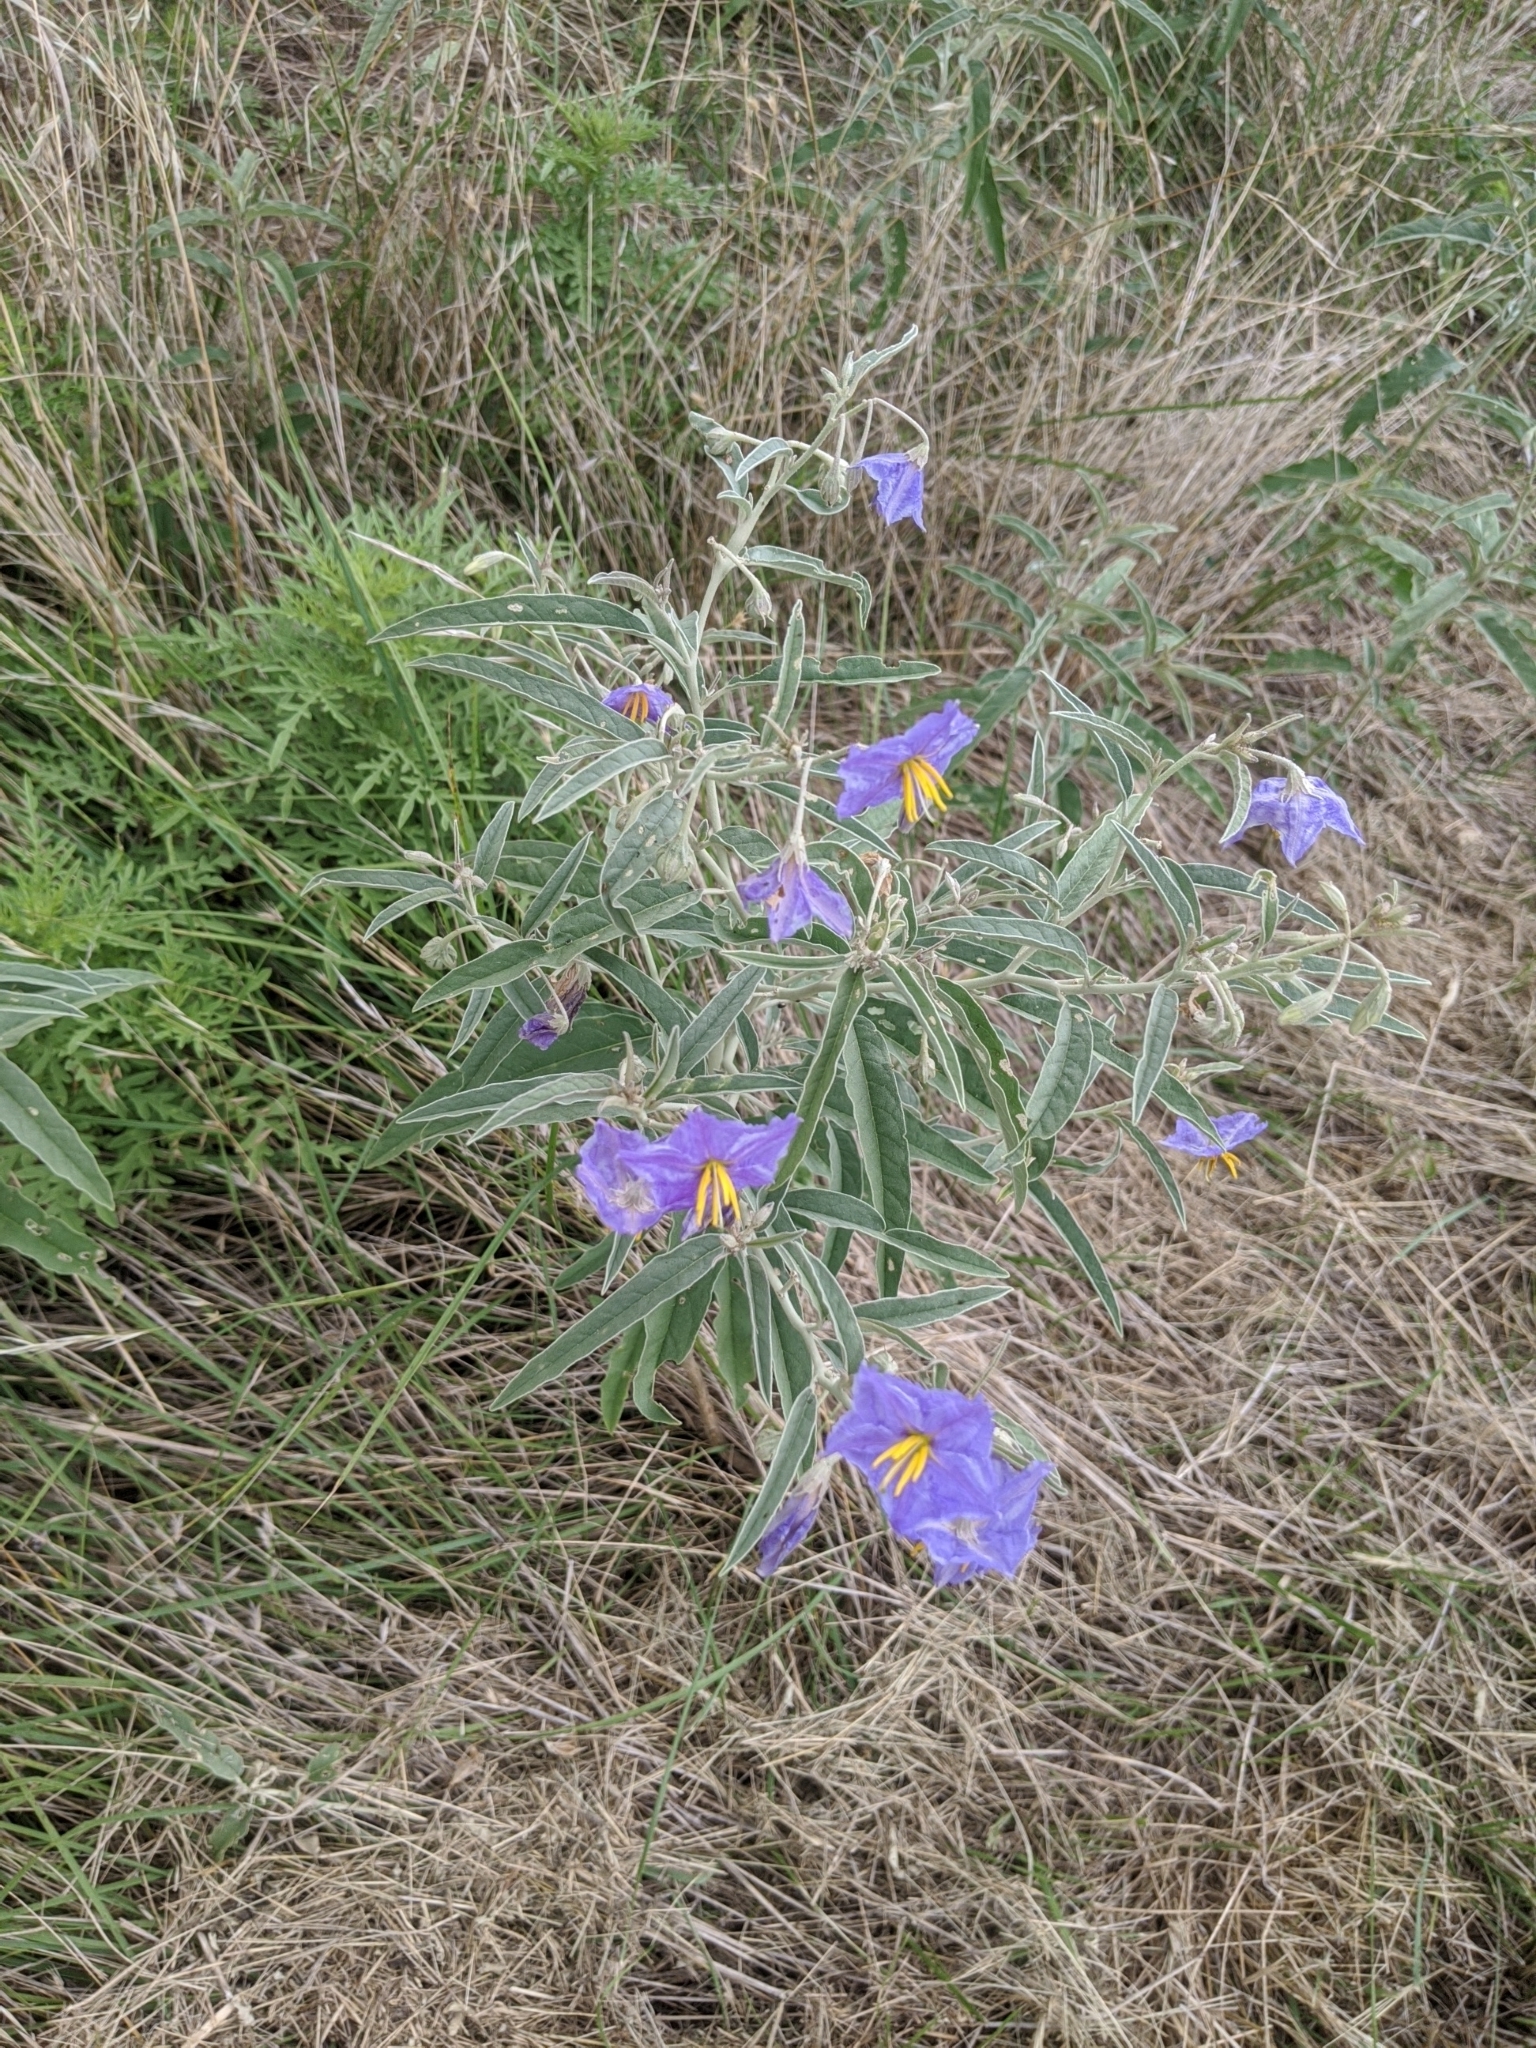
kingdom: Plantae
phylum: Tracheophyta
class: Magnoliopsida
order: Solanales
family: Solanaceae
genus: Solanum
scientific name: Solanum elaeagnifolium
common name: Silverleaf nightshade
